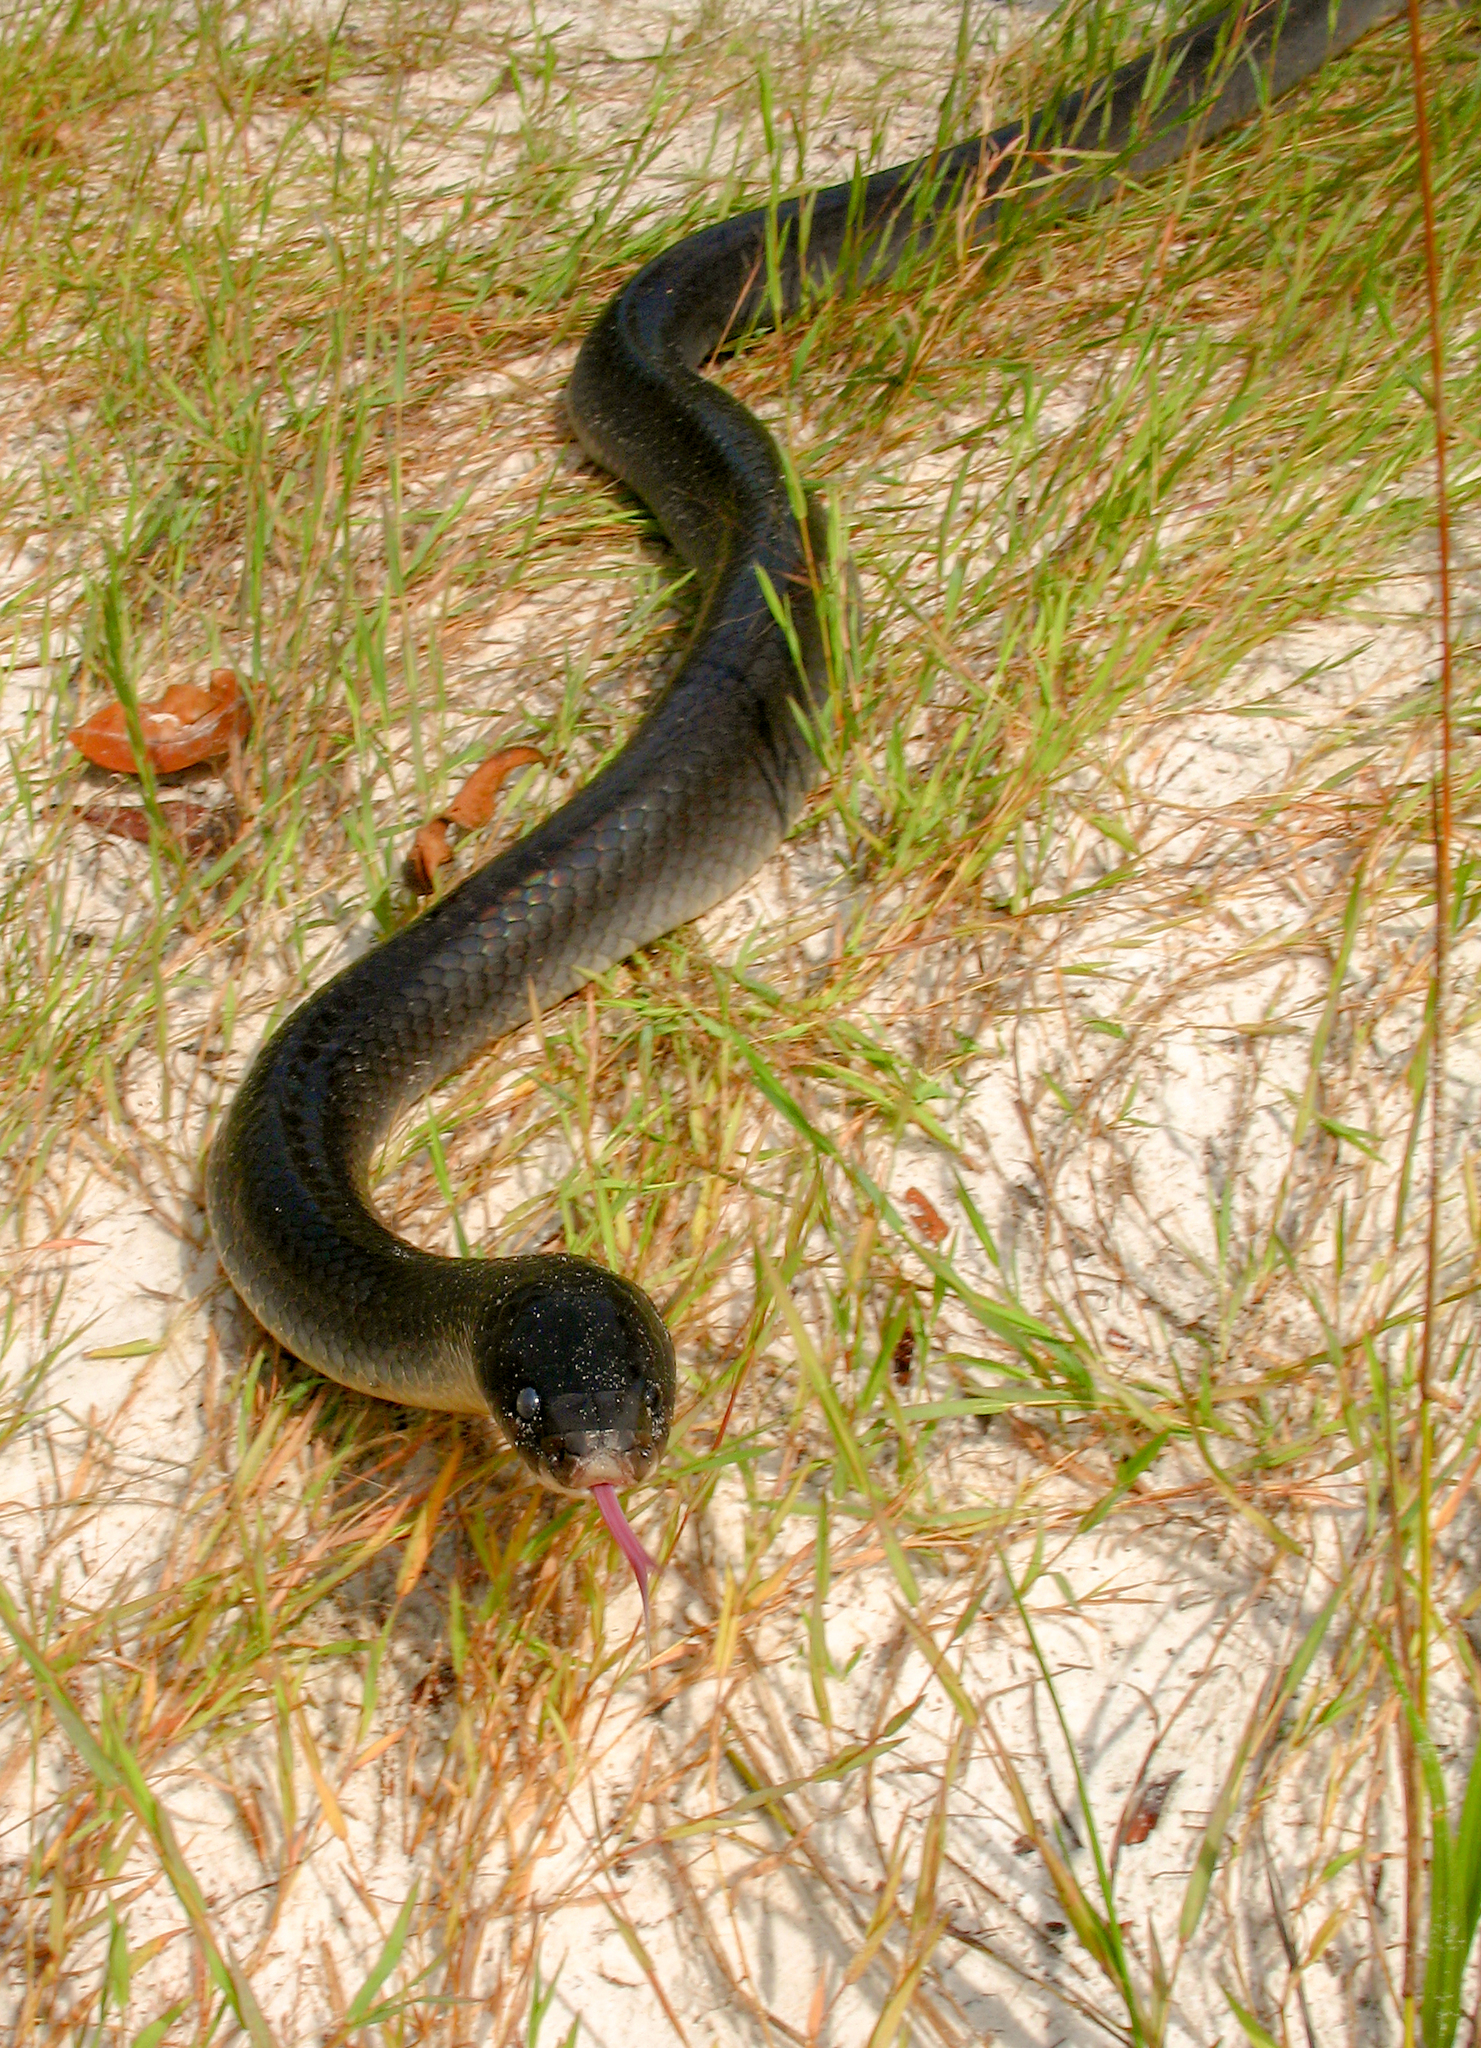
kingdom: Animalia
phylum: Chordata
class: Squamata
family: Colubridae
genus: Clelia
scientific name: Clelia clelia
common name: Mussurana
